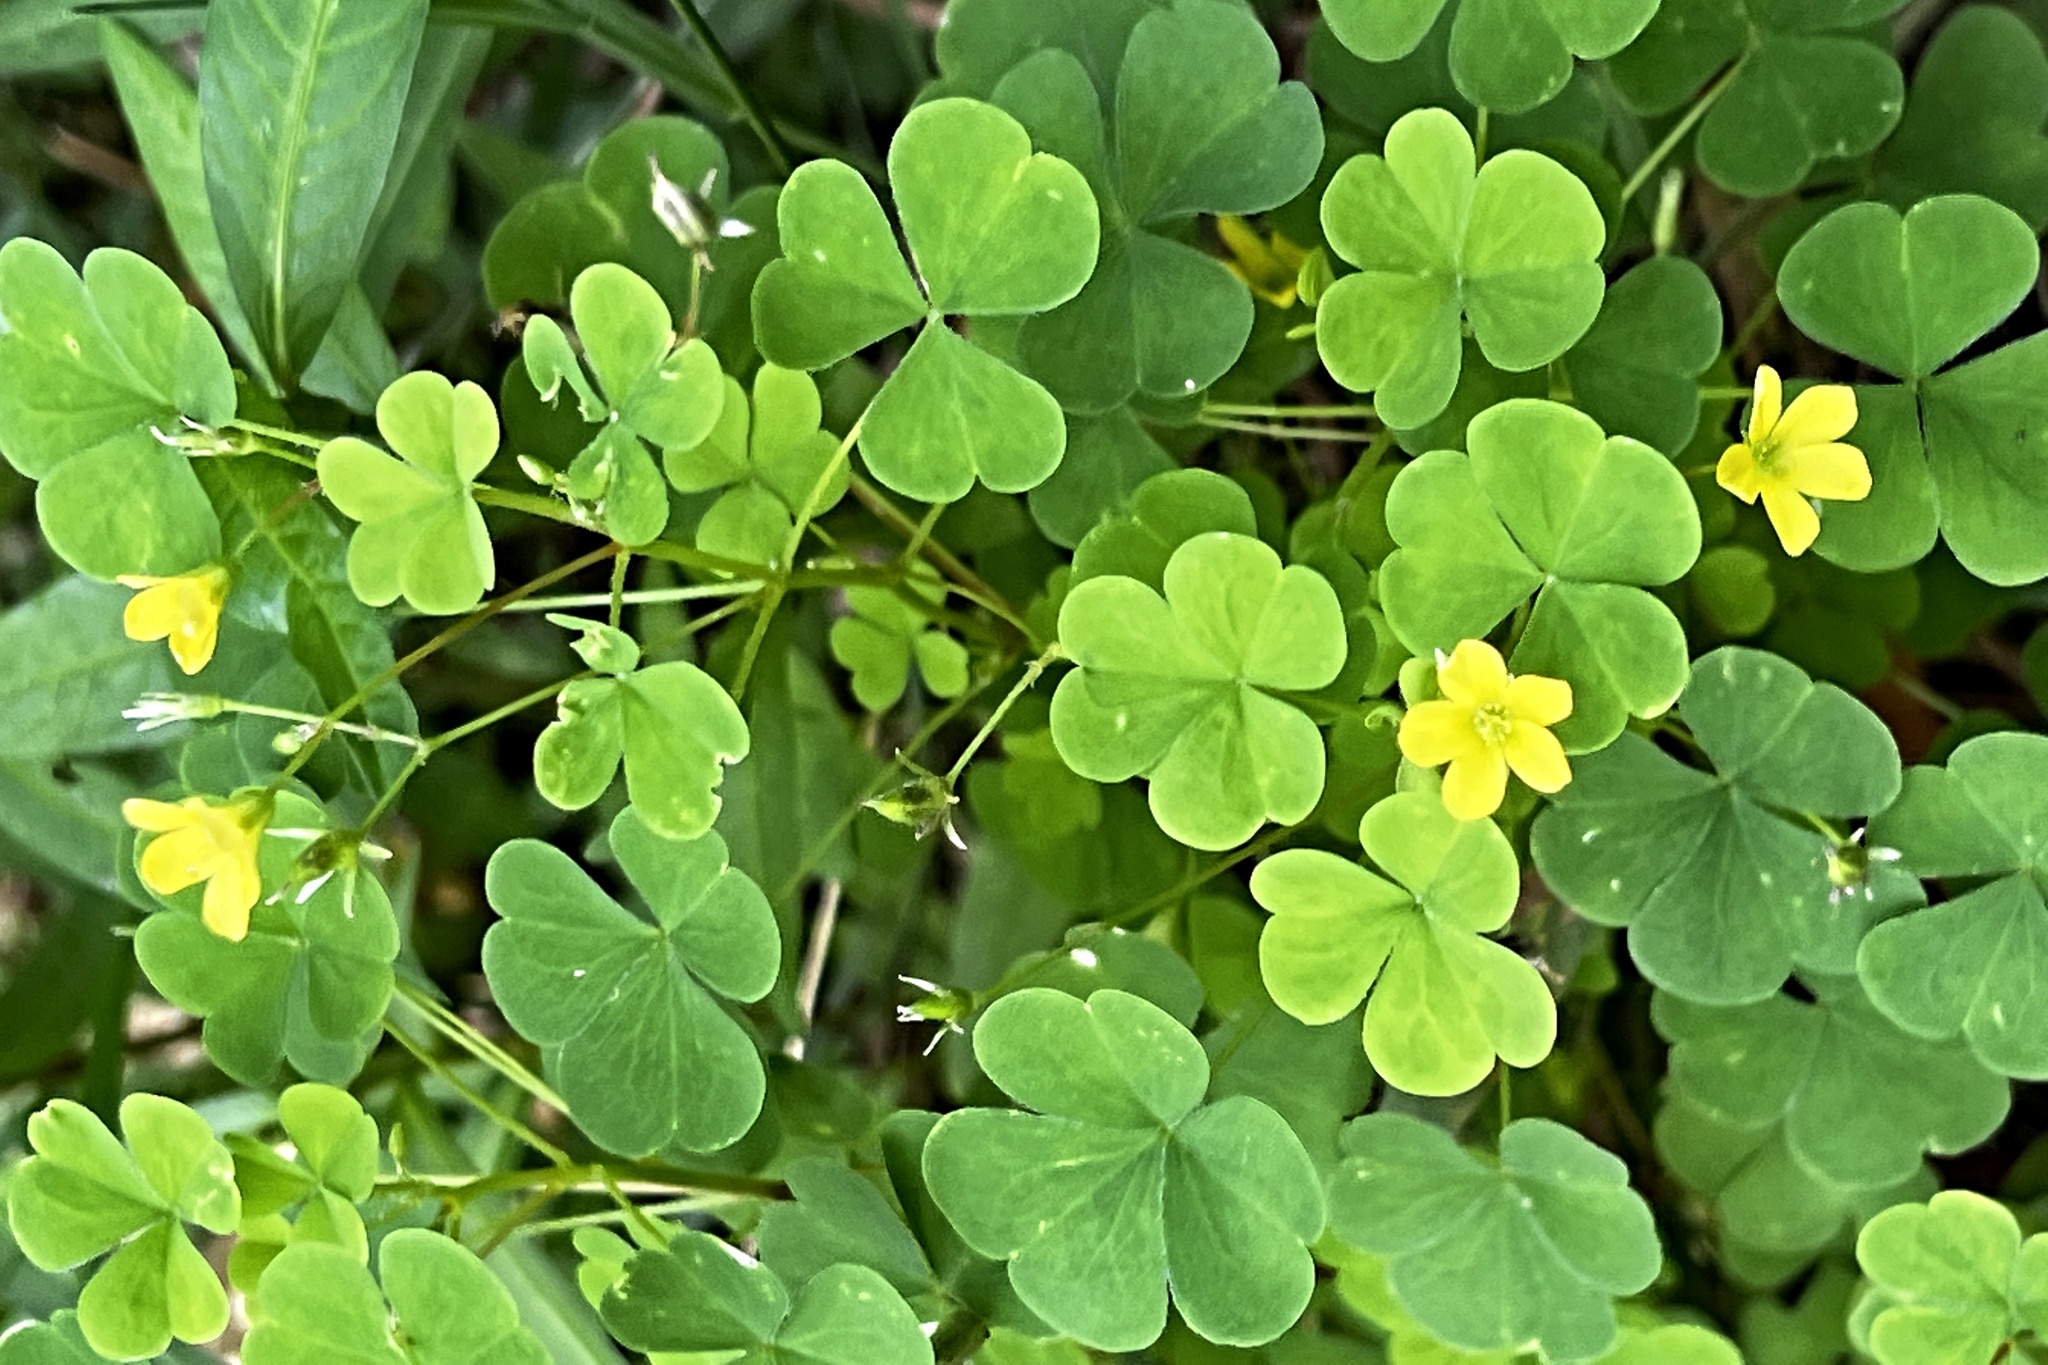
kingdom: Plantae
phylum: Tracheophyta
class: Magnoliopsida
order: Oxalidales
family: Oxalidaceae
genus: Oxalis
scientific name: Oxalis stricta
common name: Upright yellow-sorrel
